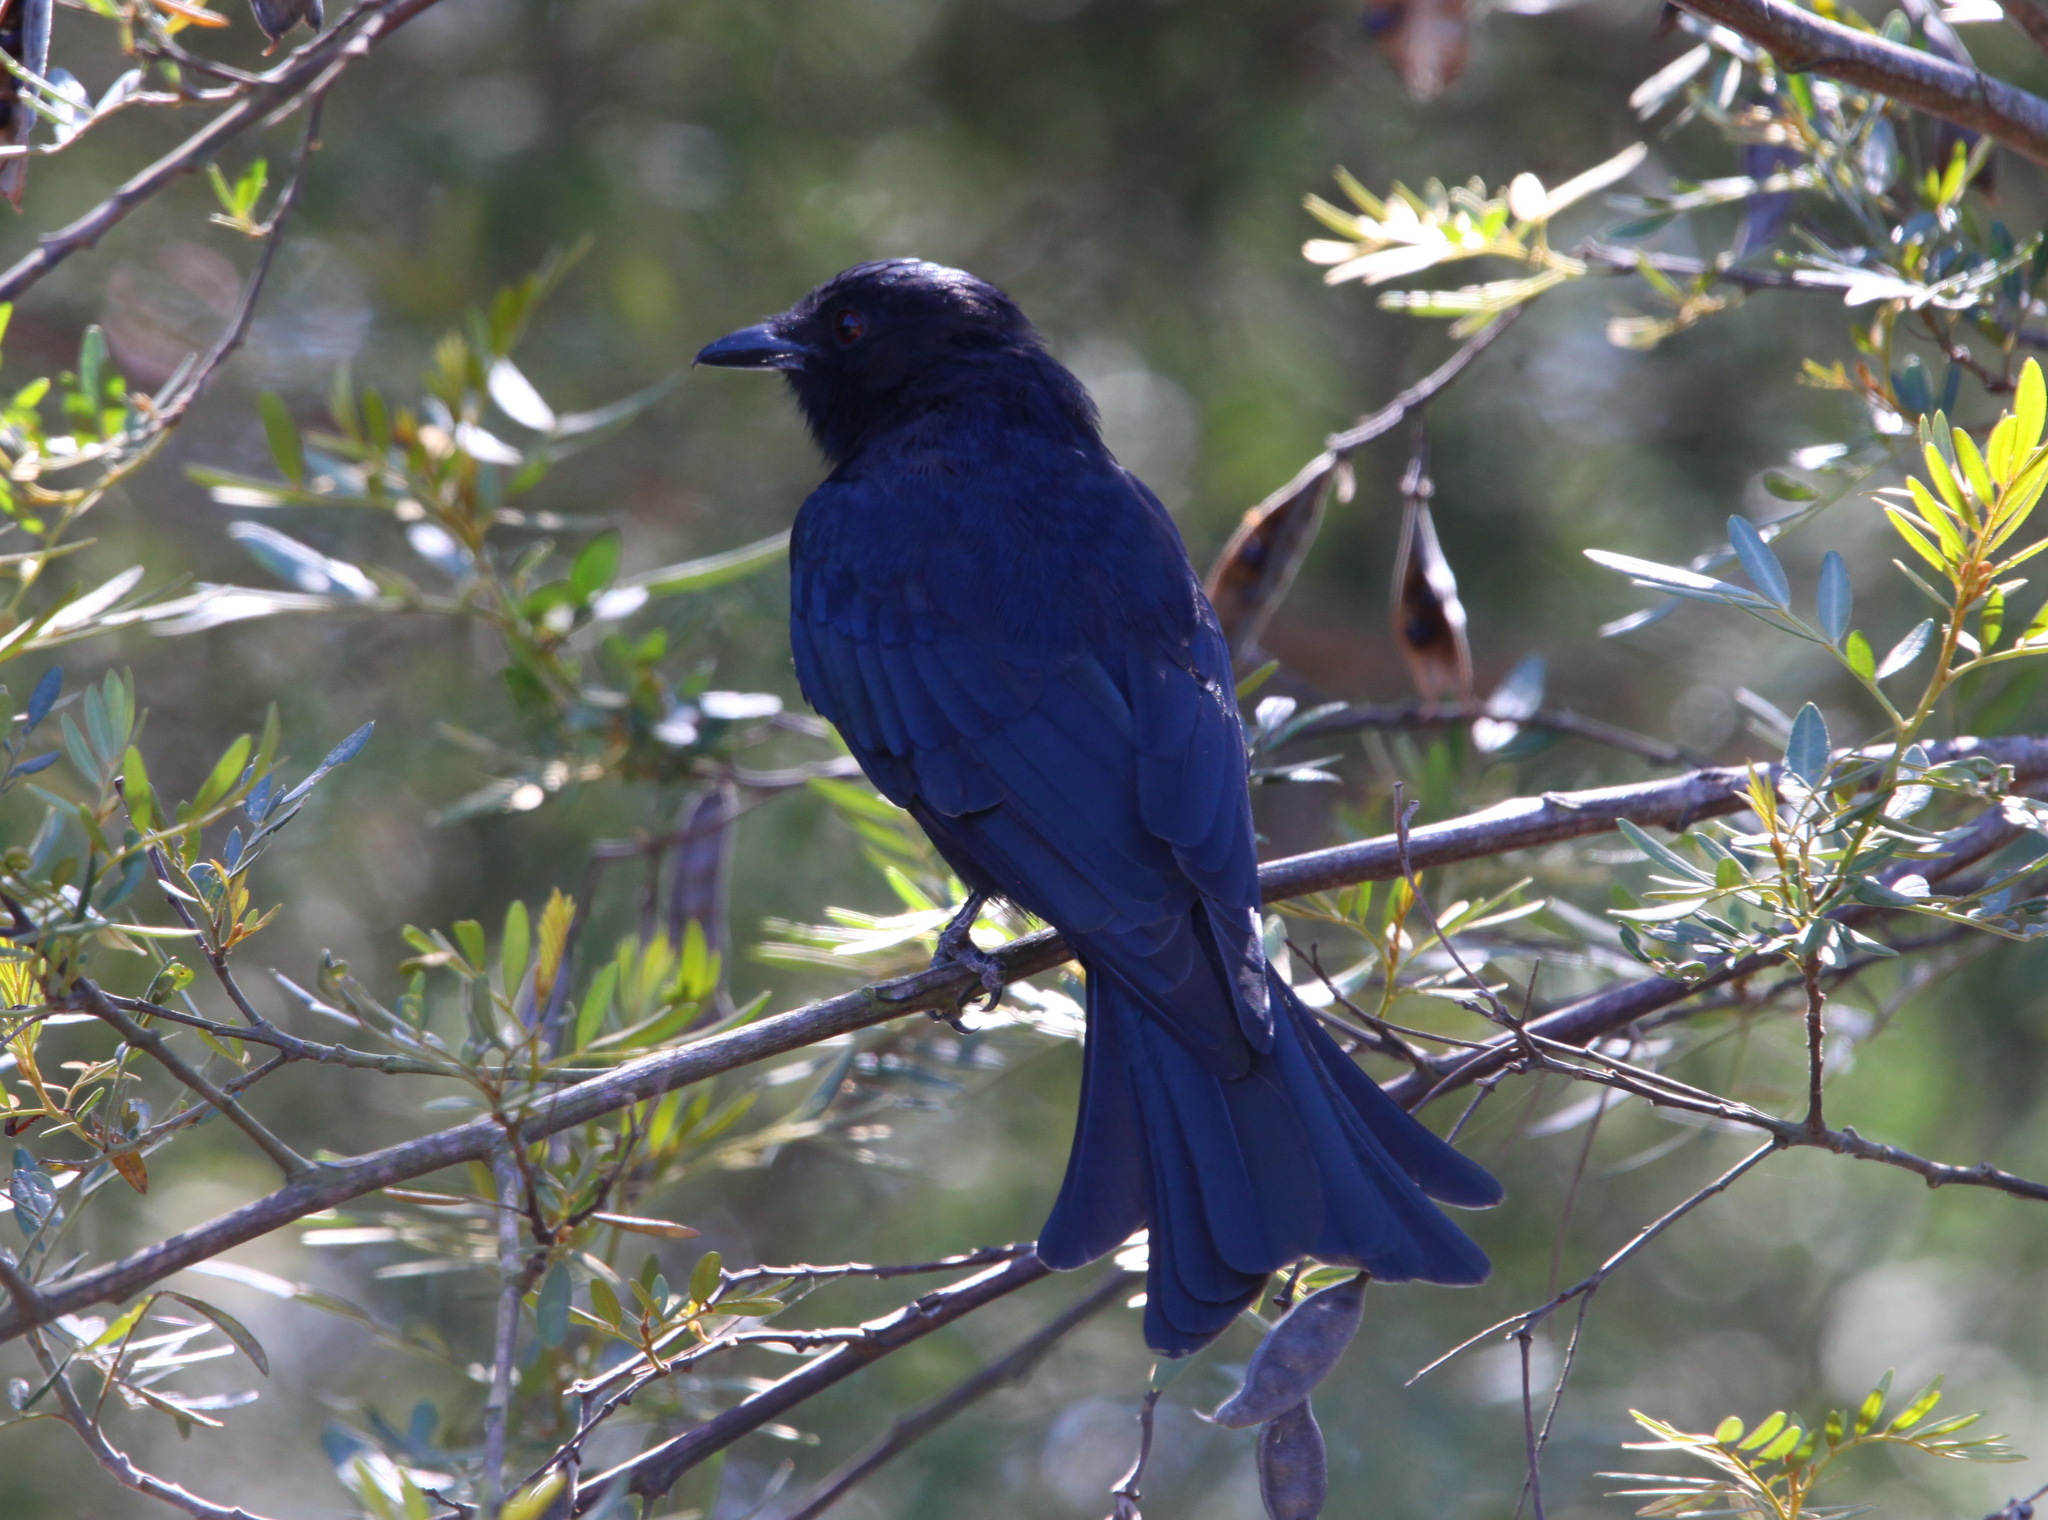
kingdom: Animalia
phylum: Chordata
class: Aves
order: Passeriformes
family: Dicruridae
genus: Dicrurus
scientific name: Dicrurus adsimilis
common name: Fork-tailed drongo
